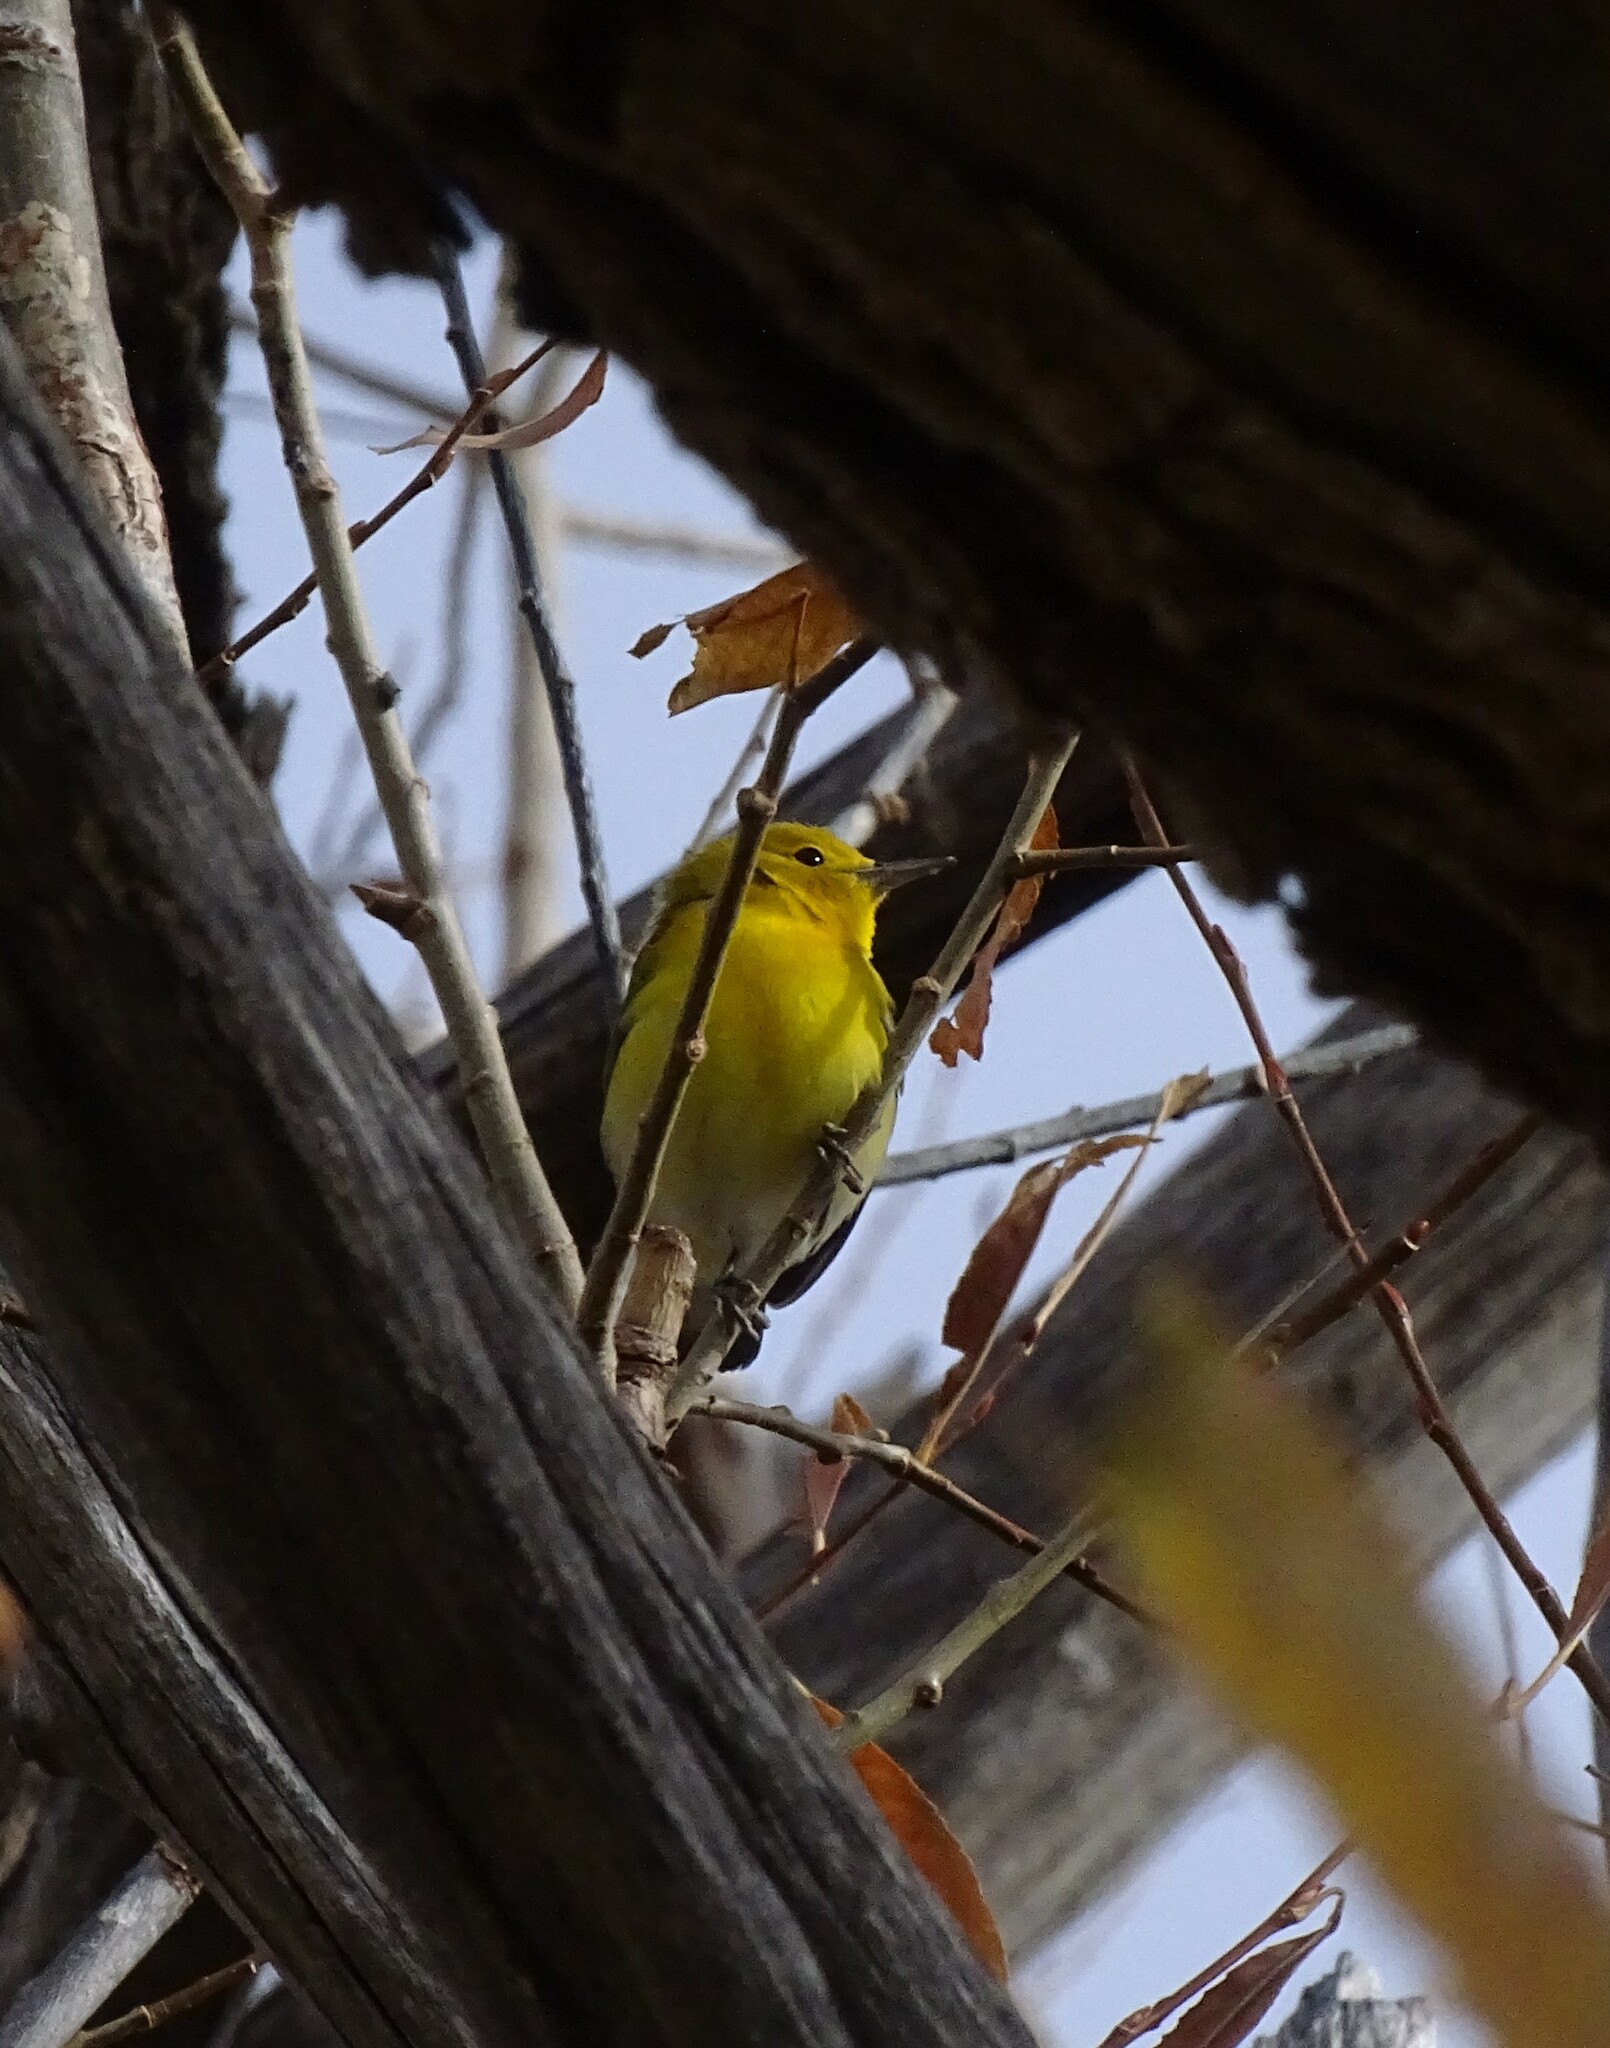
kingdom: Animalia
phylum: Chordata
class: Aves
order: Passeriformes
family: Parulidae
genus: Protonotaria
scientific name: Protonotaria citrea
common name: Prothonotary warbler
